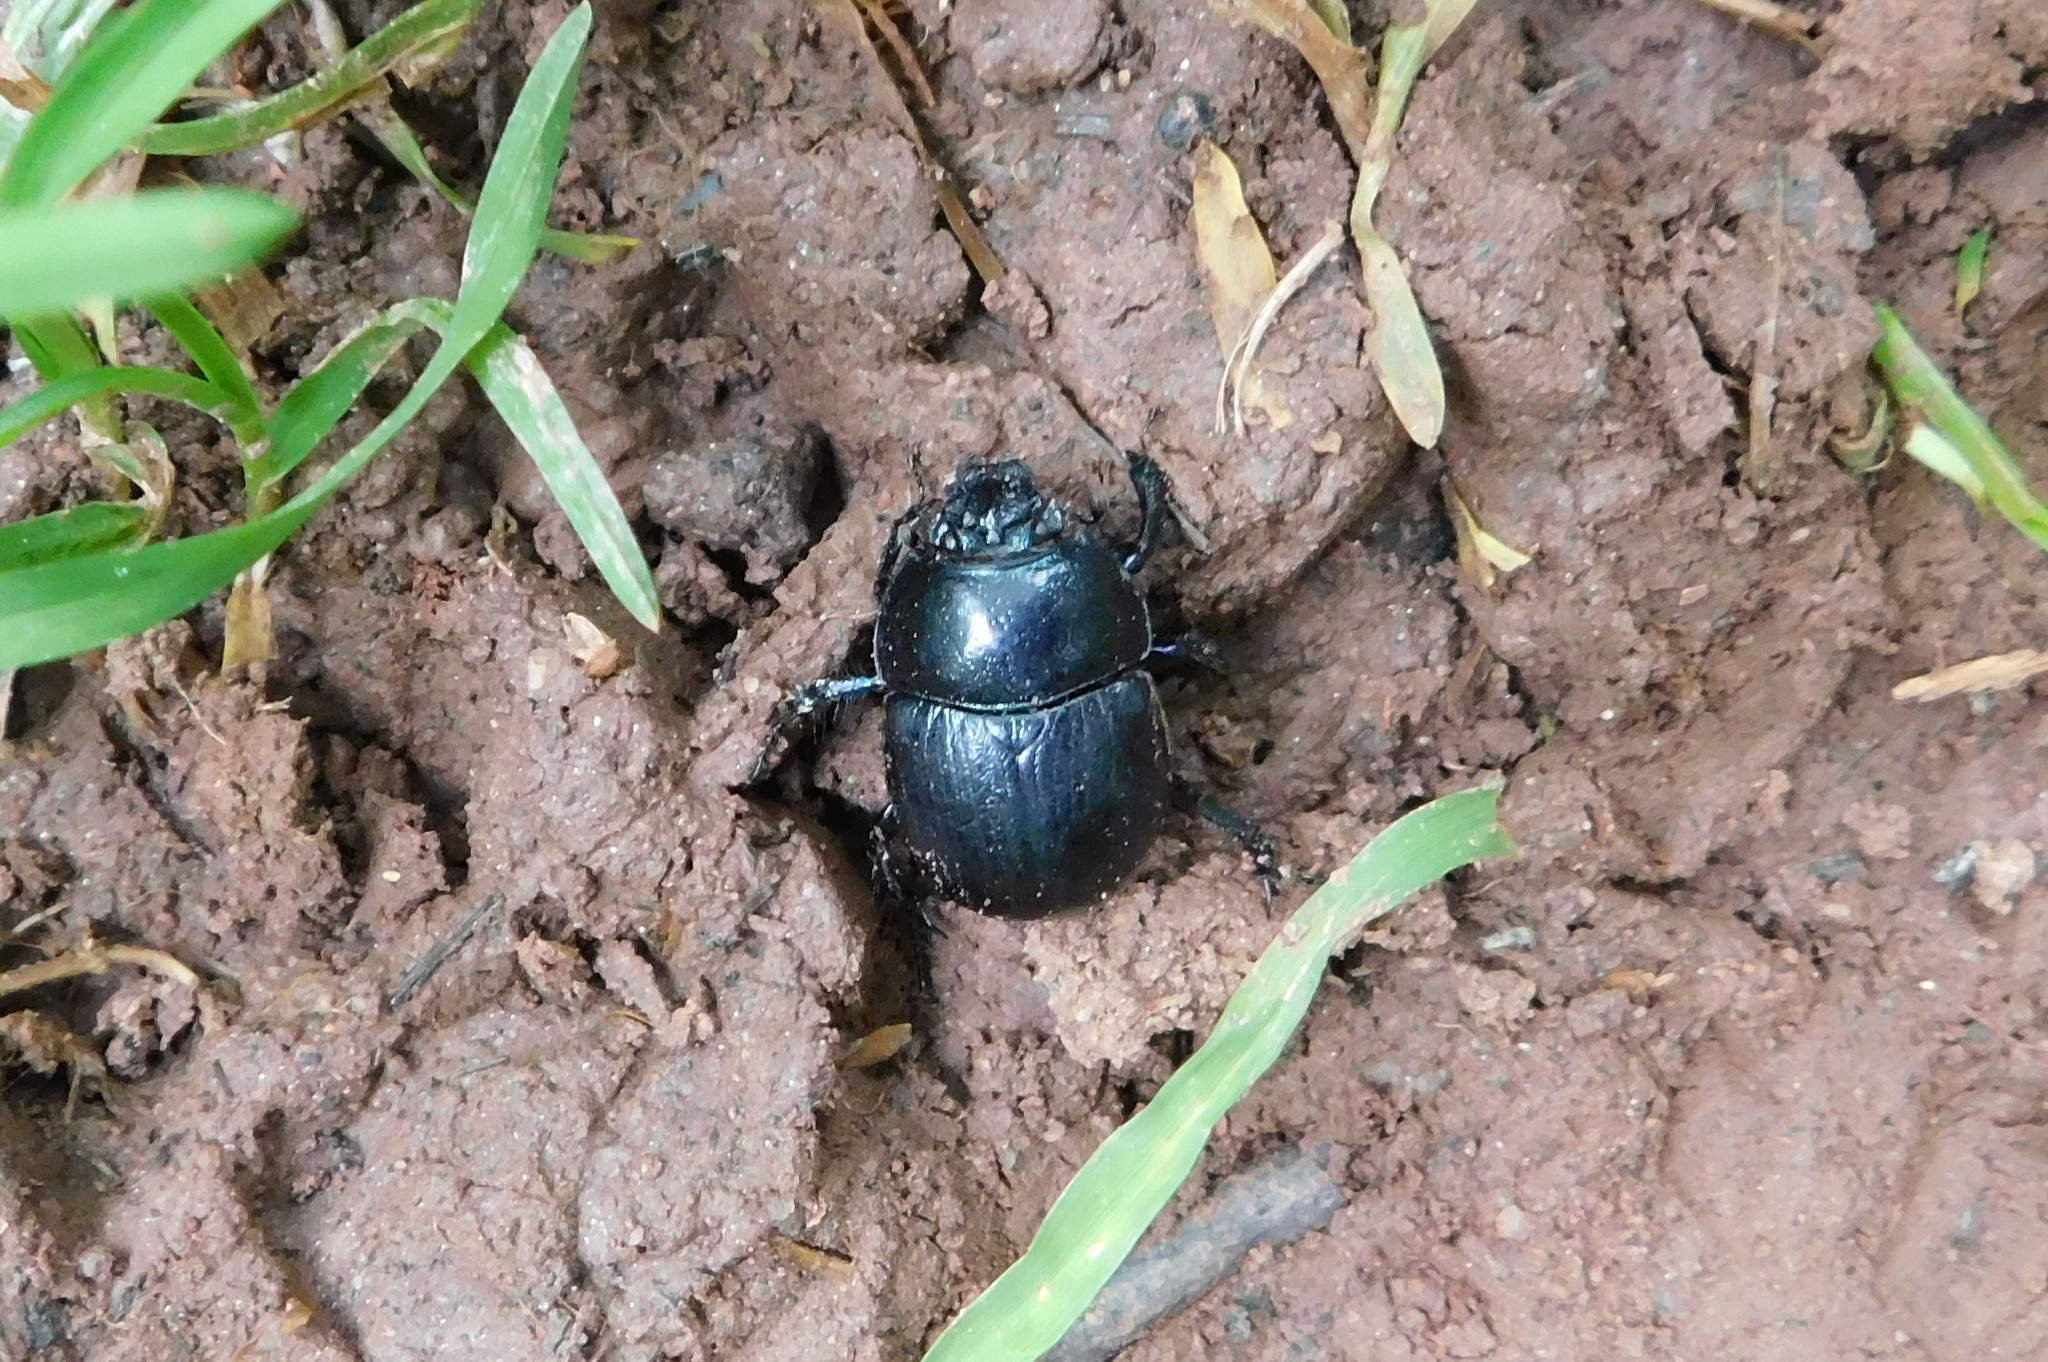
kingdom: Animalia
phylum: Arthropoda
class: Insecta
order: Coleoptera
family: Geotrupidae
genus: Anoplotrupes
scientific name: Anoplotrupes stercorosus
